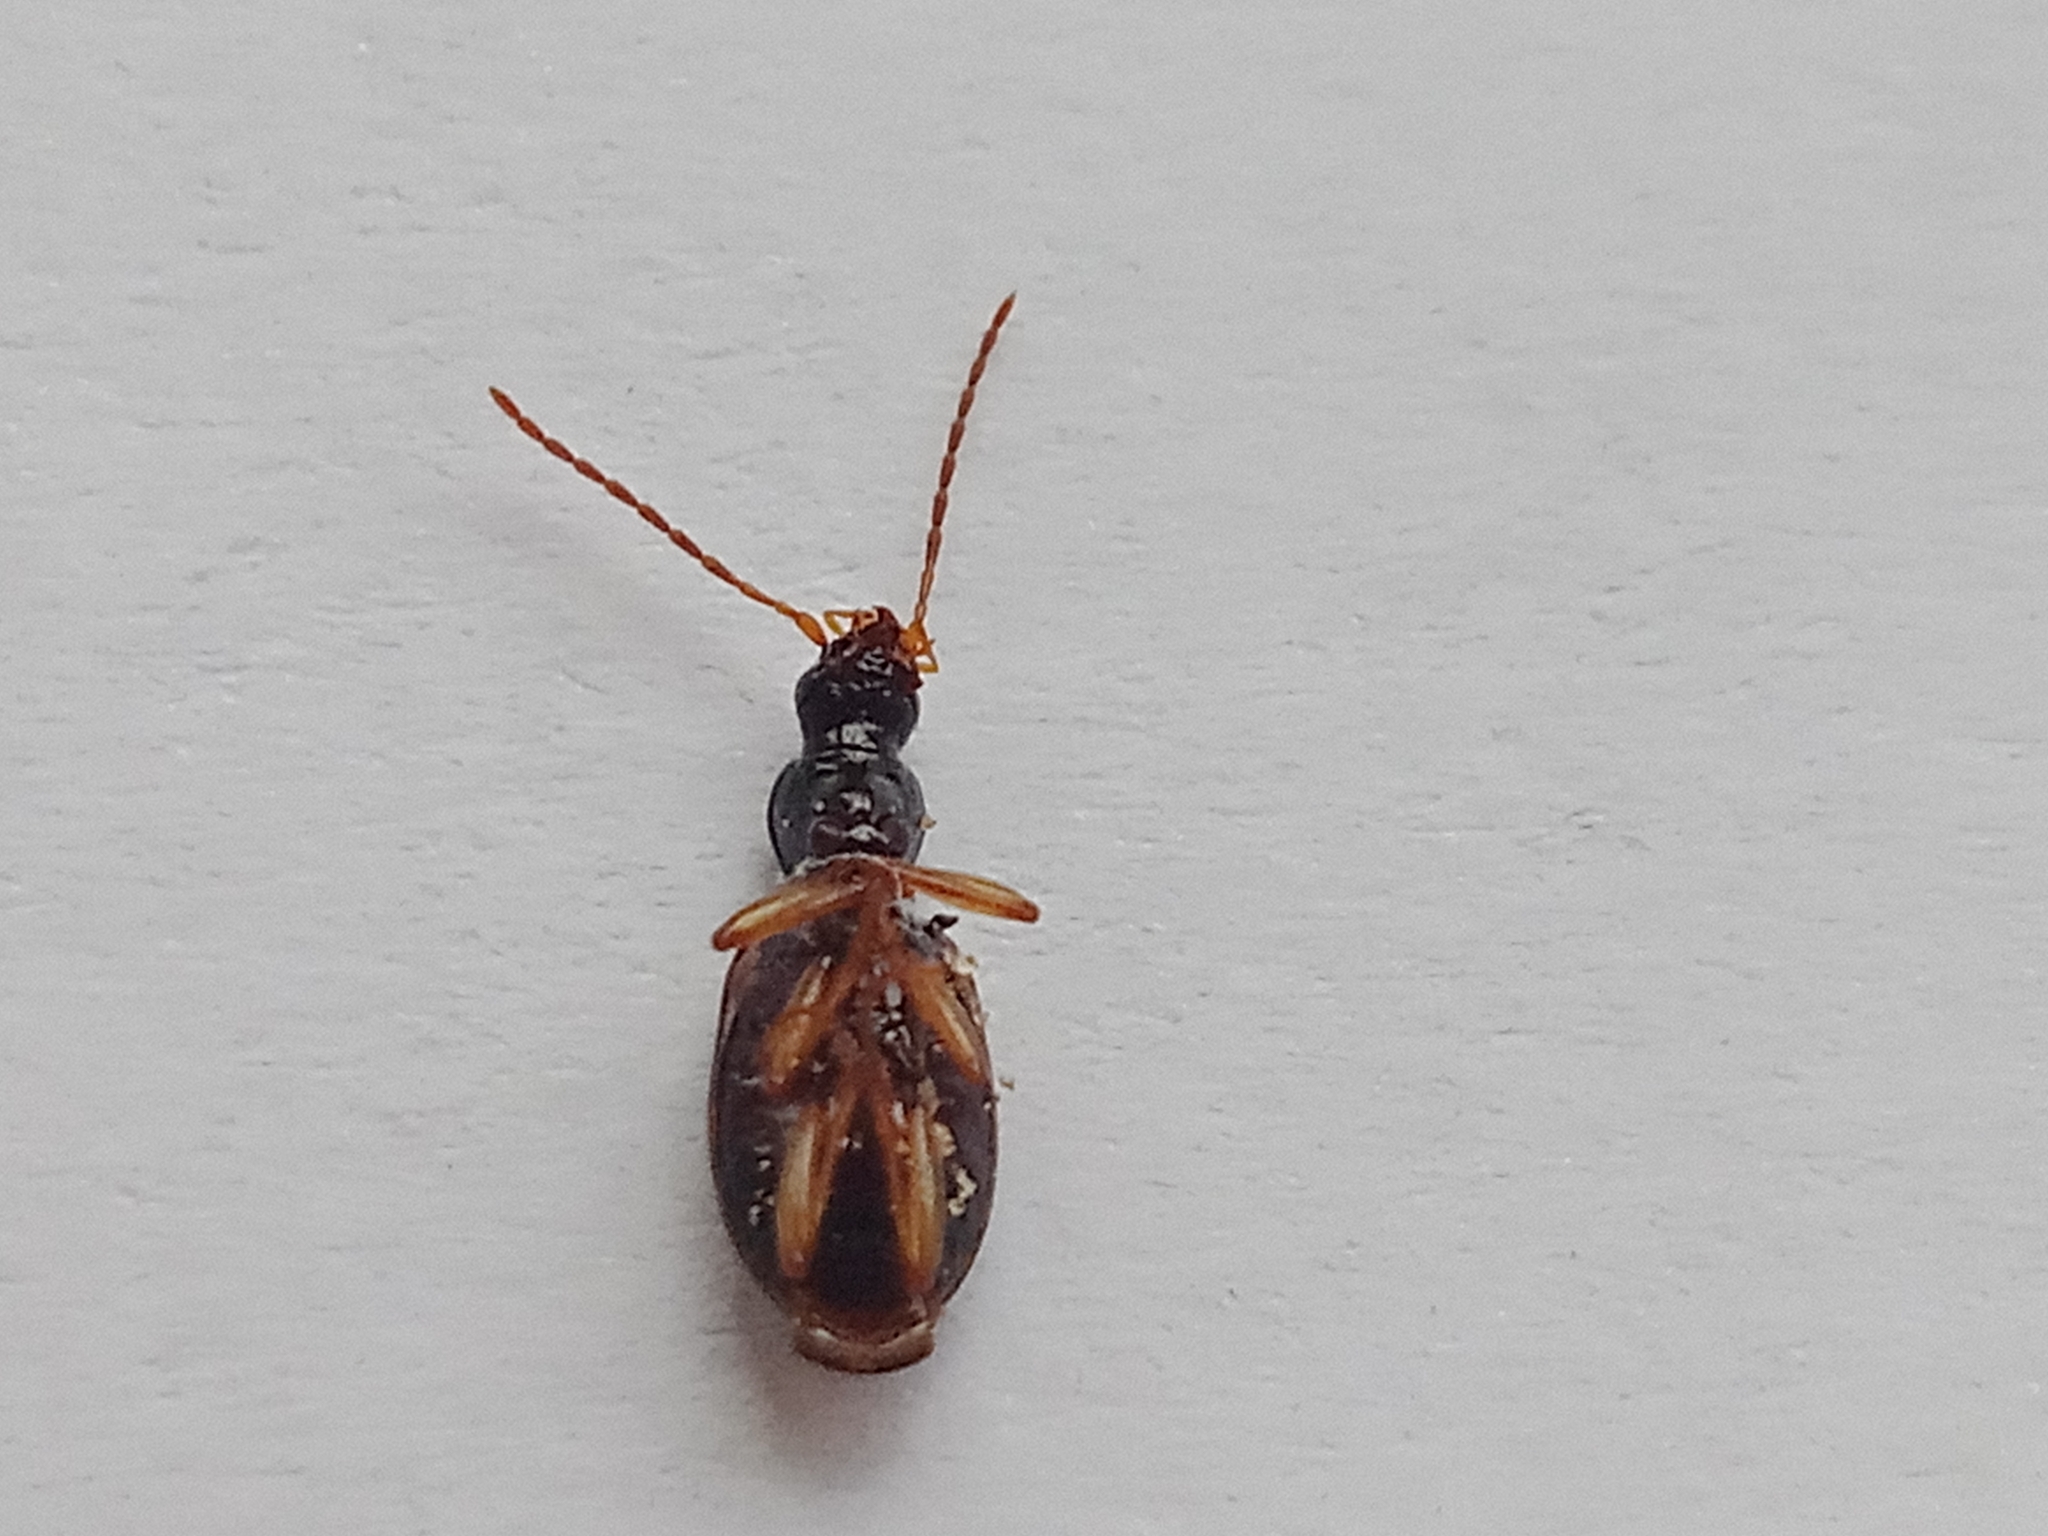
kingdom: Animalia
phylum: Arthropoda
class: Insecta
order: Coleoptera
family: Carabidae
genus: Oxypselaphus
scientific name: Oxypselaphus obscurus
